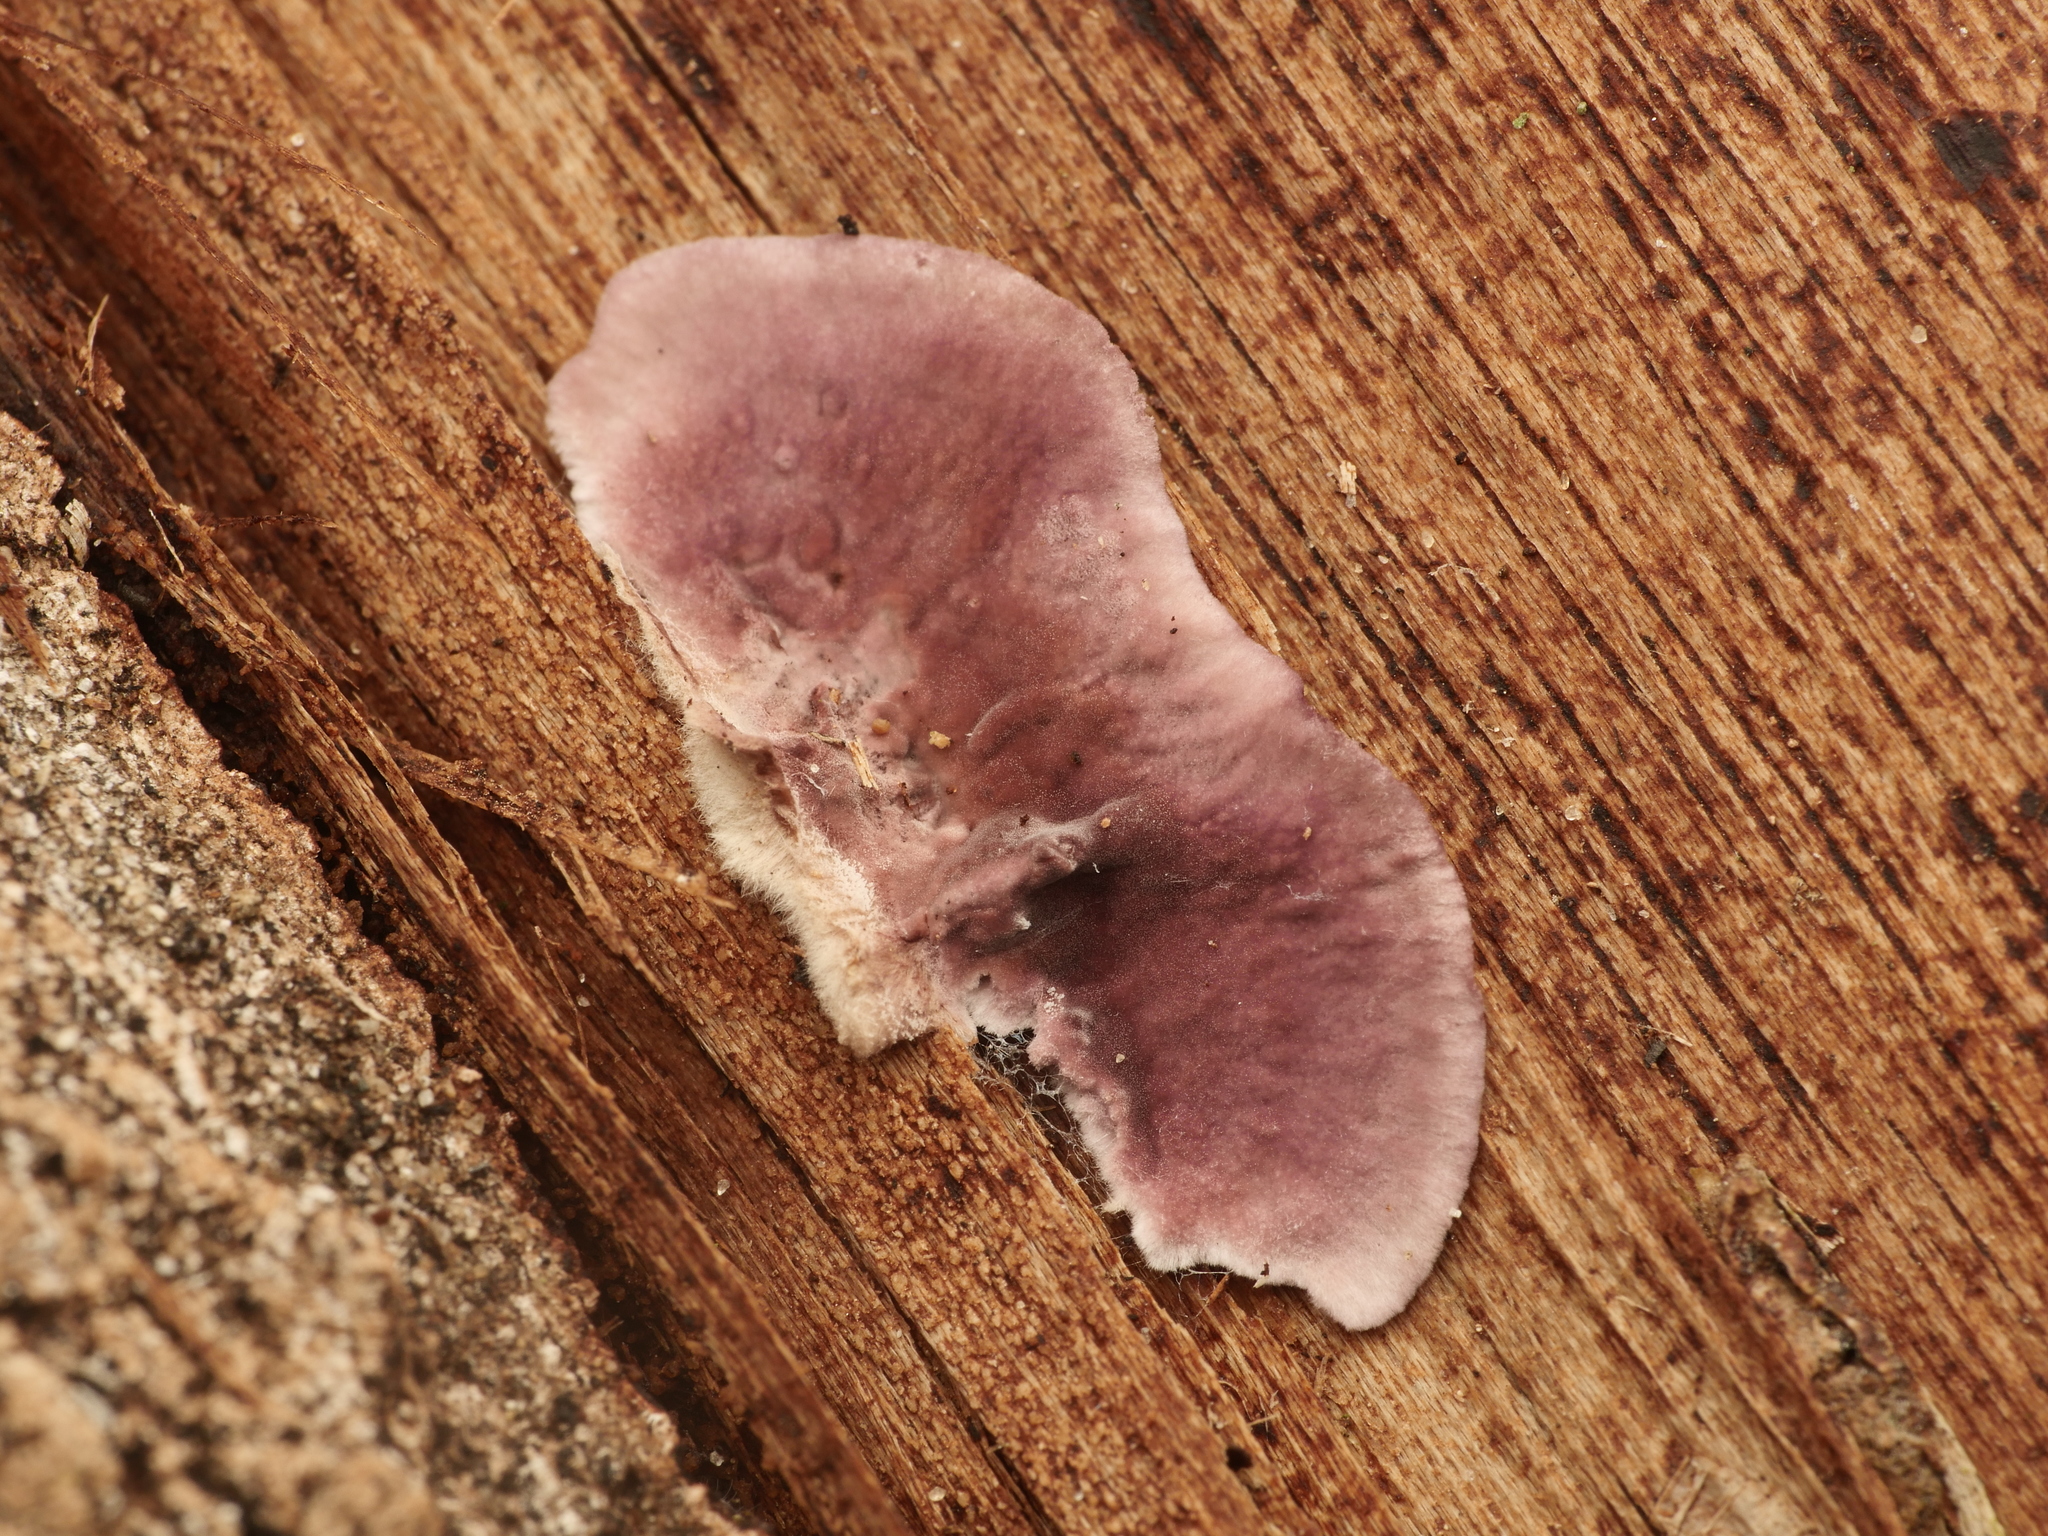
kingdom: Fungi
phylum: Basidiomycota
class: Agaricomycetes
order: Agaricales
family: Cyphellaceae
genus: Chondrostereum
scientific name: Chondrostereum purpureum
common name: Silver leaf disease
